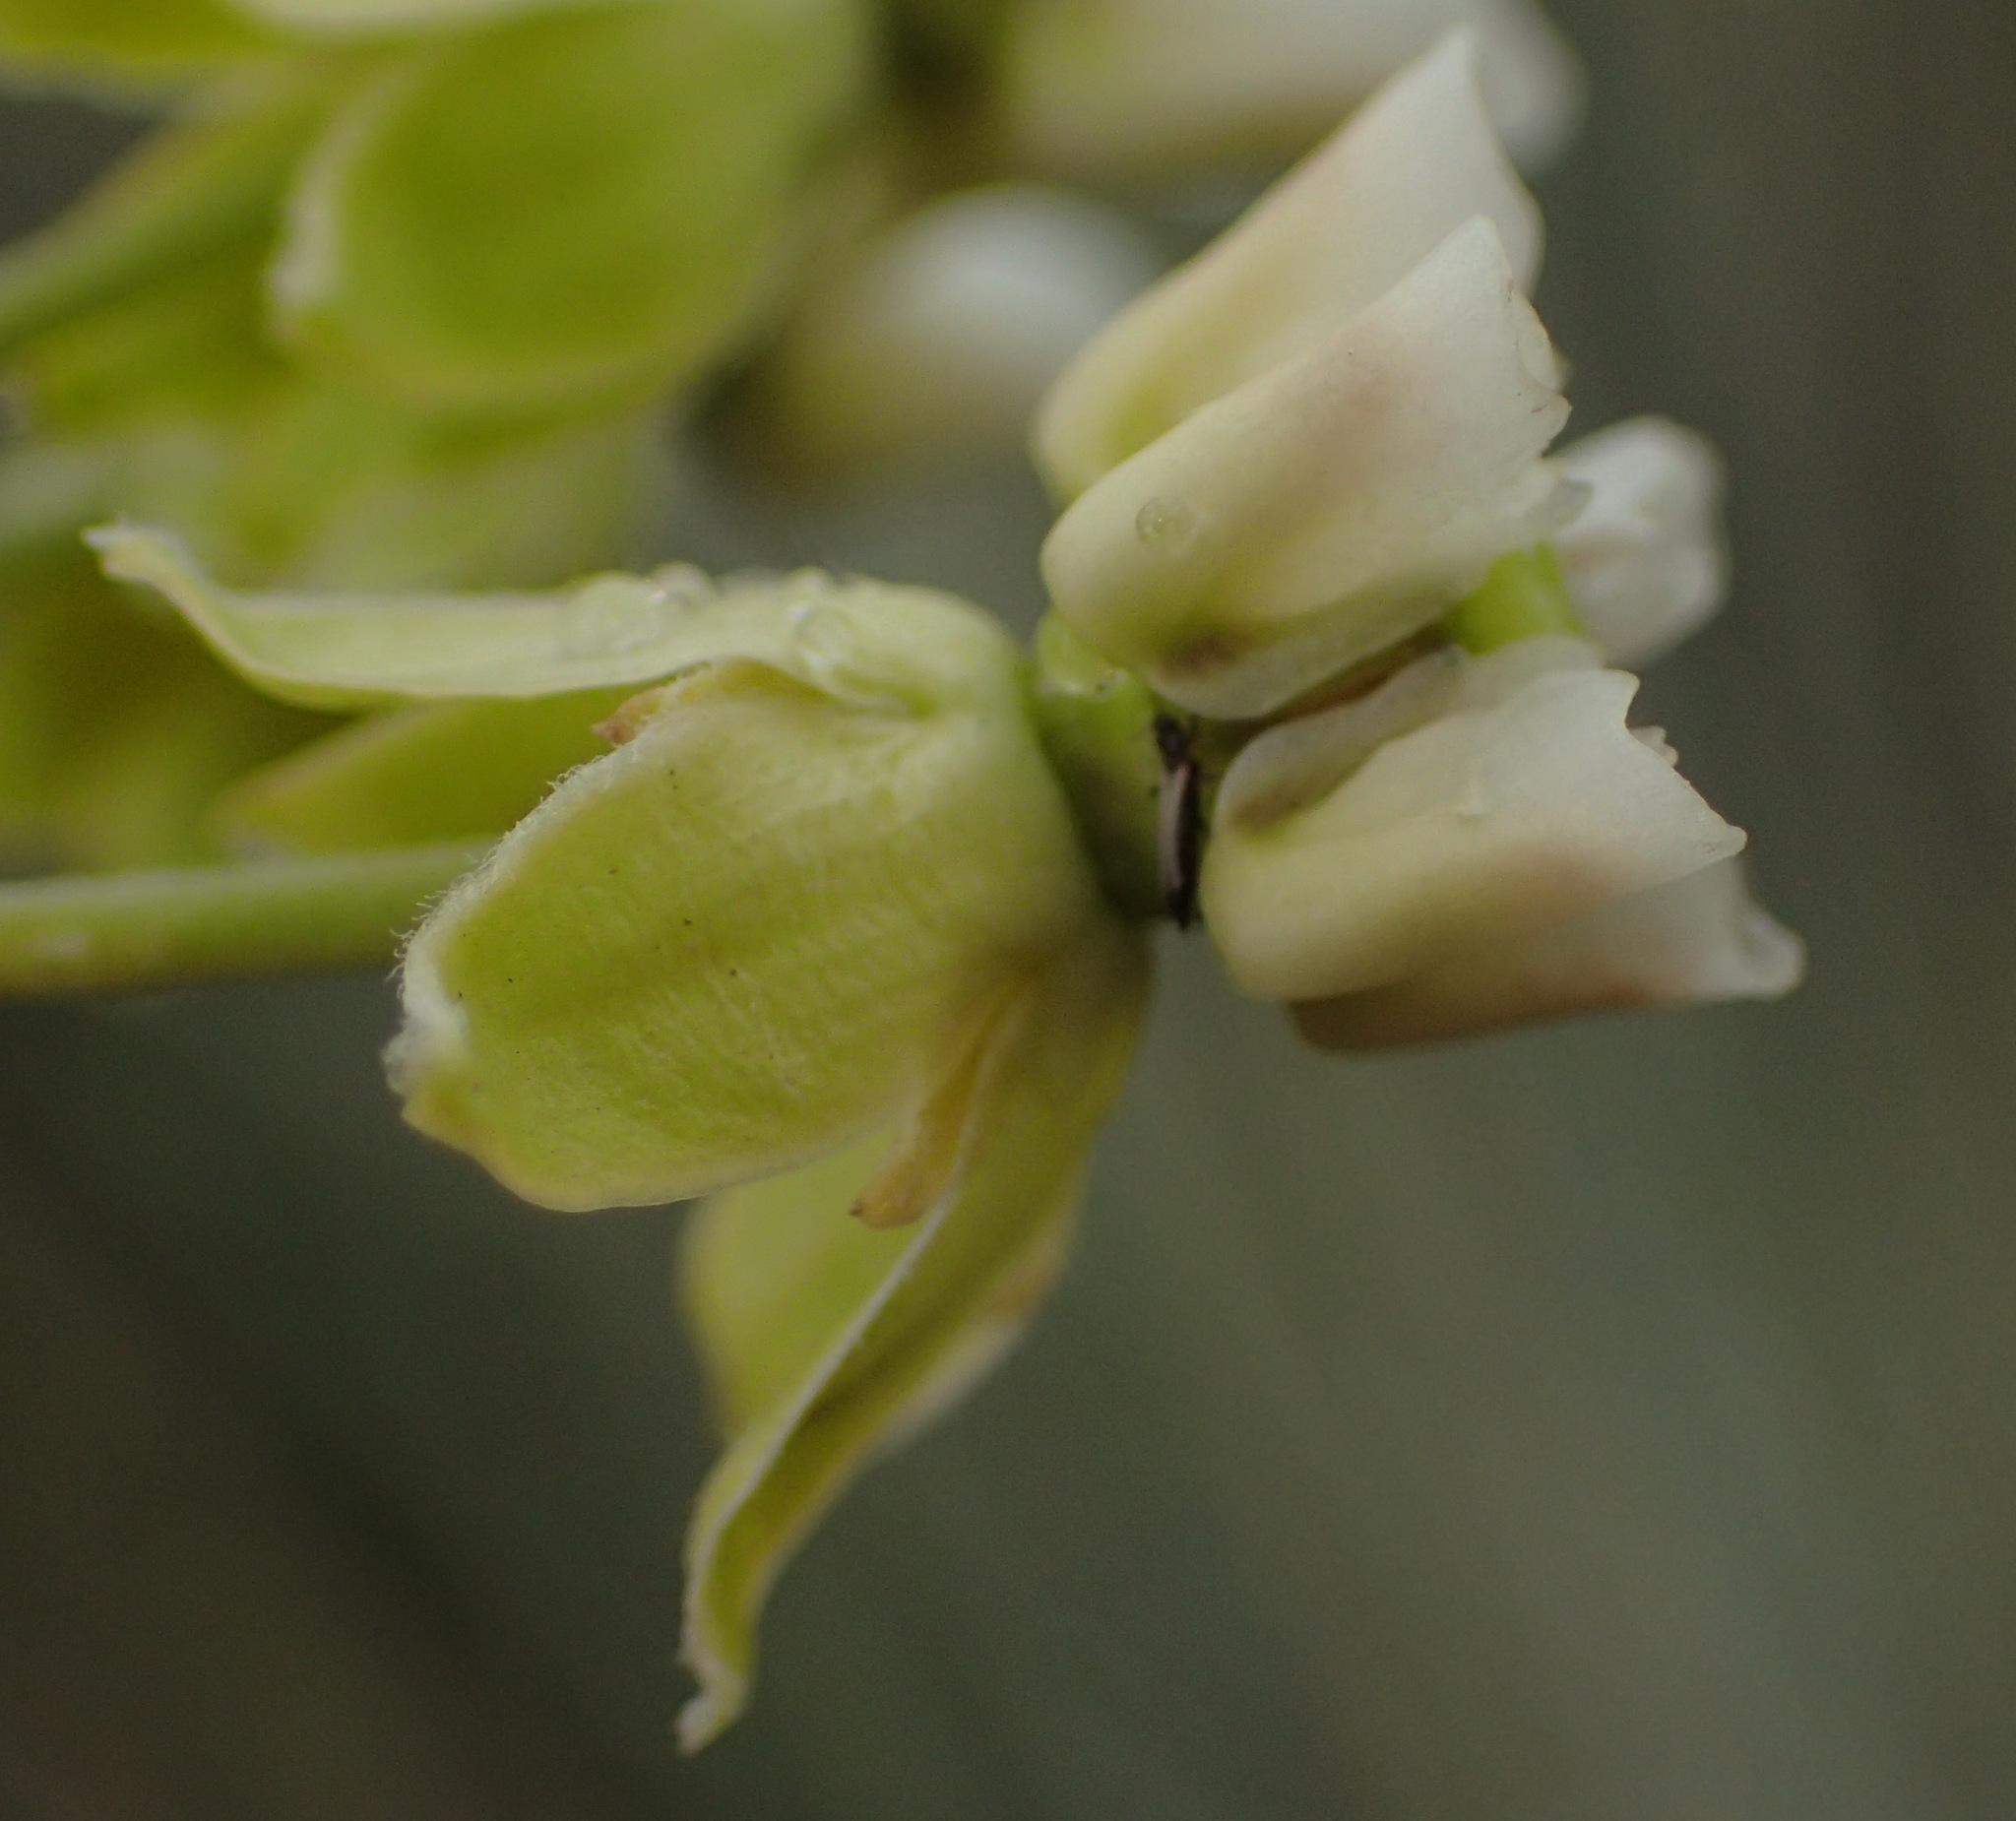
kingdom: Plantae
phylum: Tracheophyta
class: Magnoliopsida
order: Gentianales
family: Apocynaceae
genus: Gomphocarpus
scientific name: Gomphocarpus filiformis
